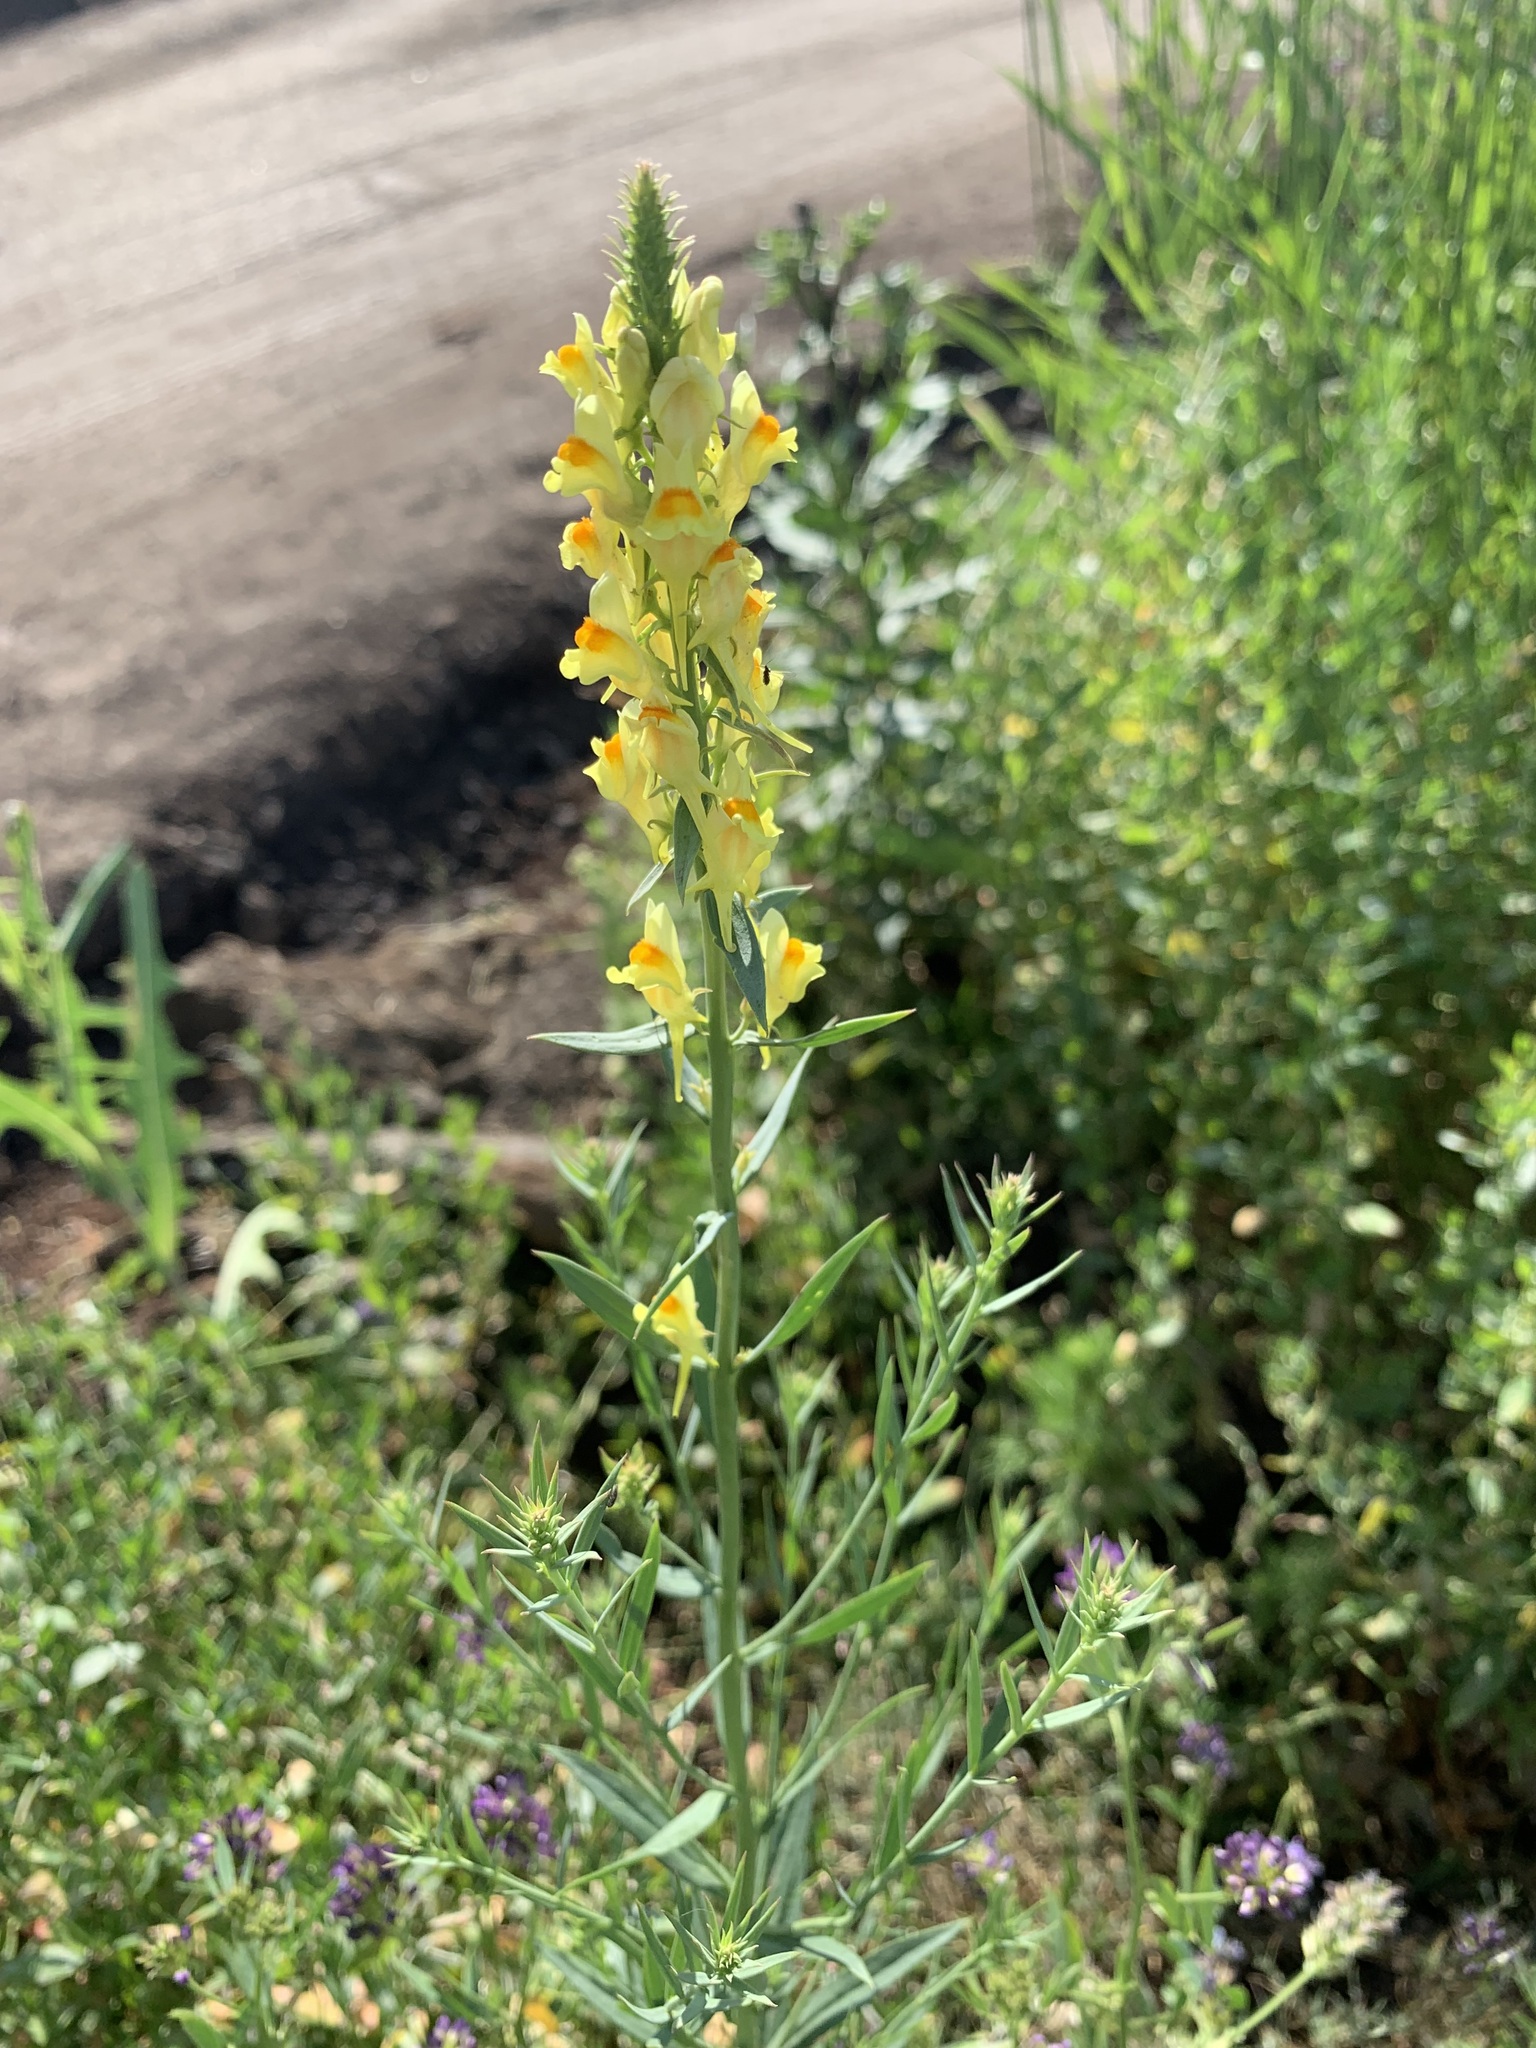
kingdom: Plantae
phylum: Tracheophyta
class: Magnoliopsida
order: Lamiales
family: Plantaginaceae
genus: Linaria
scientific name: Linaria vulgaris
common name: Butter and eggs
